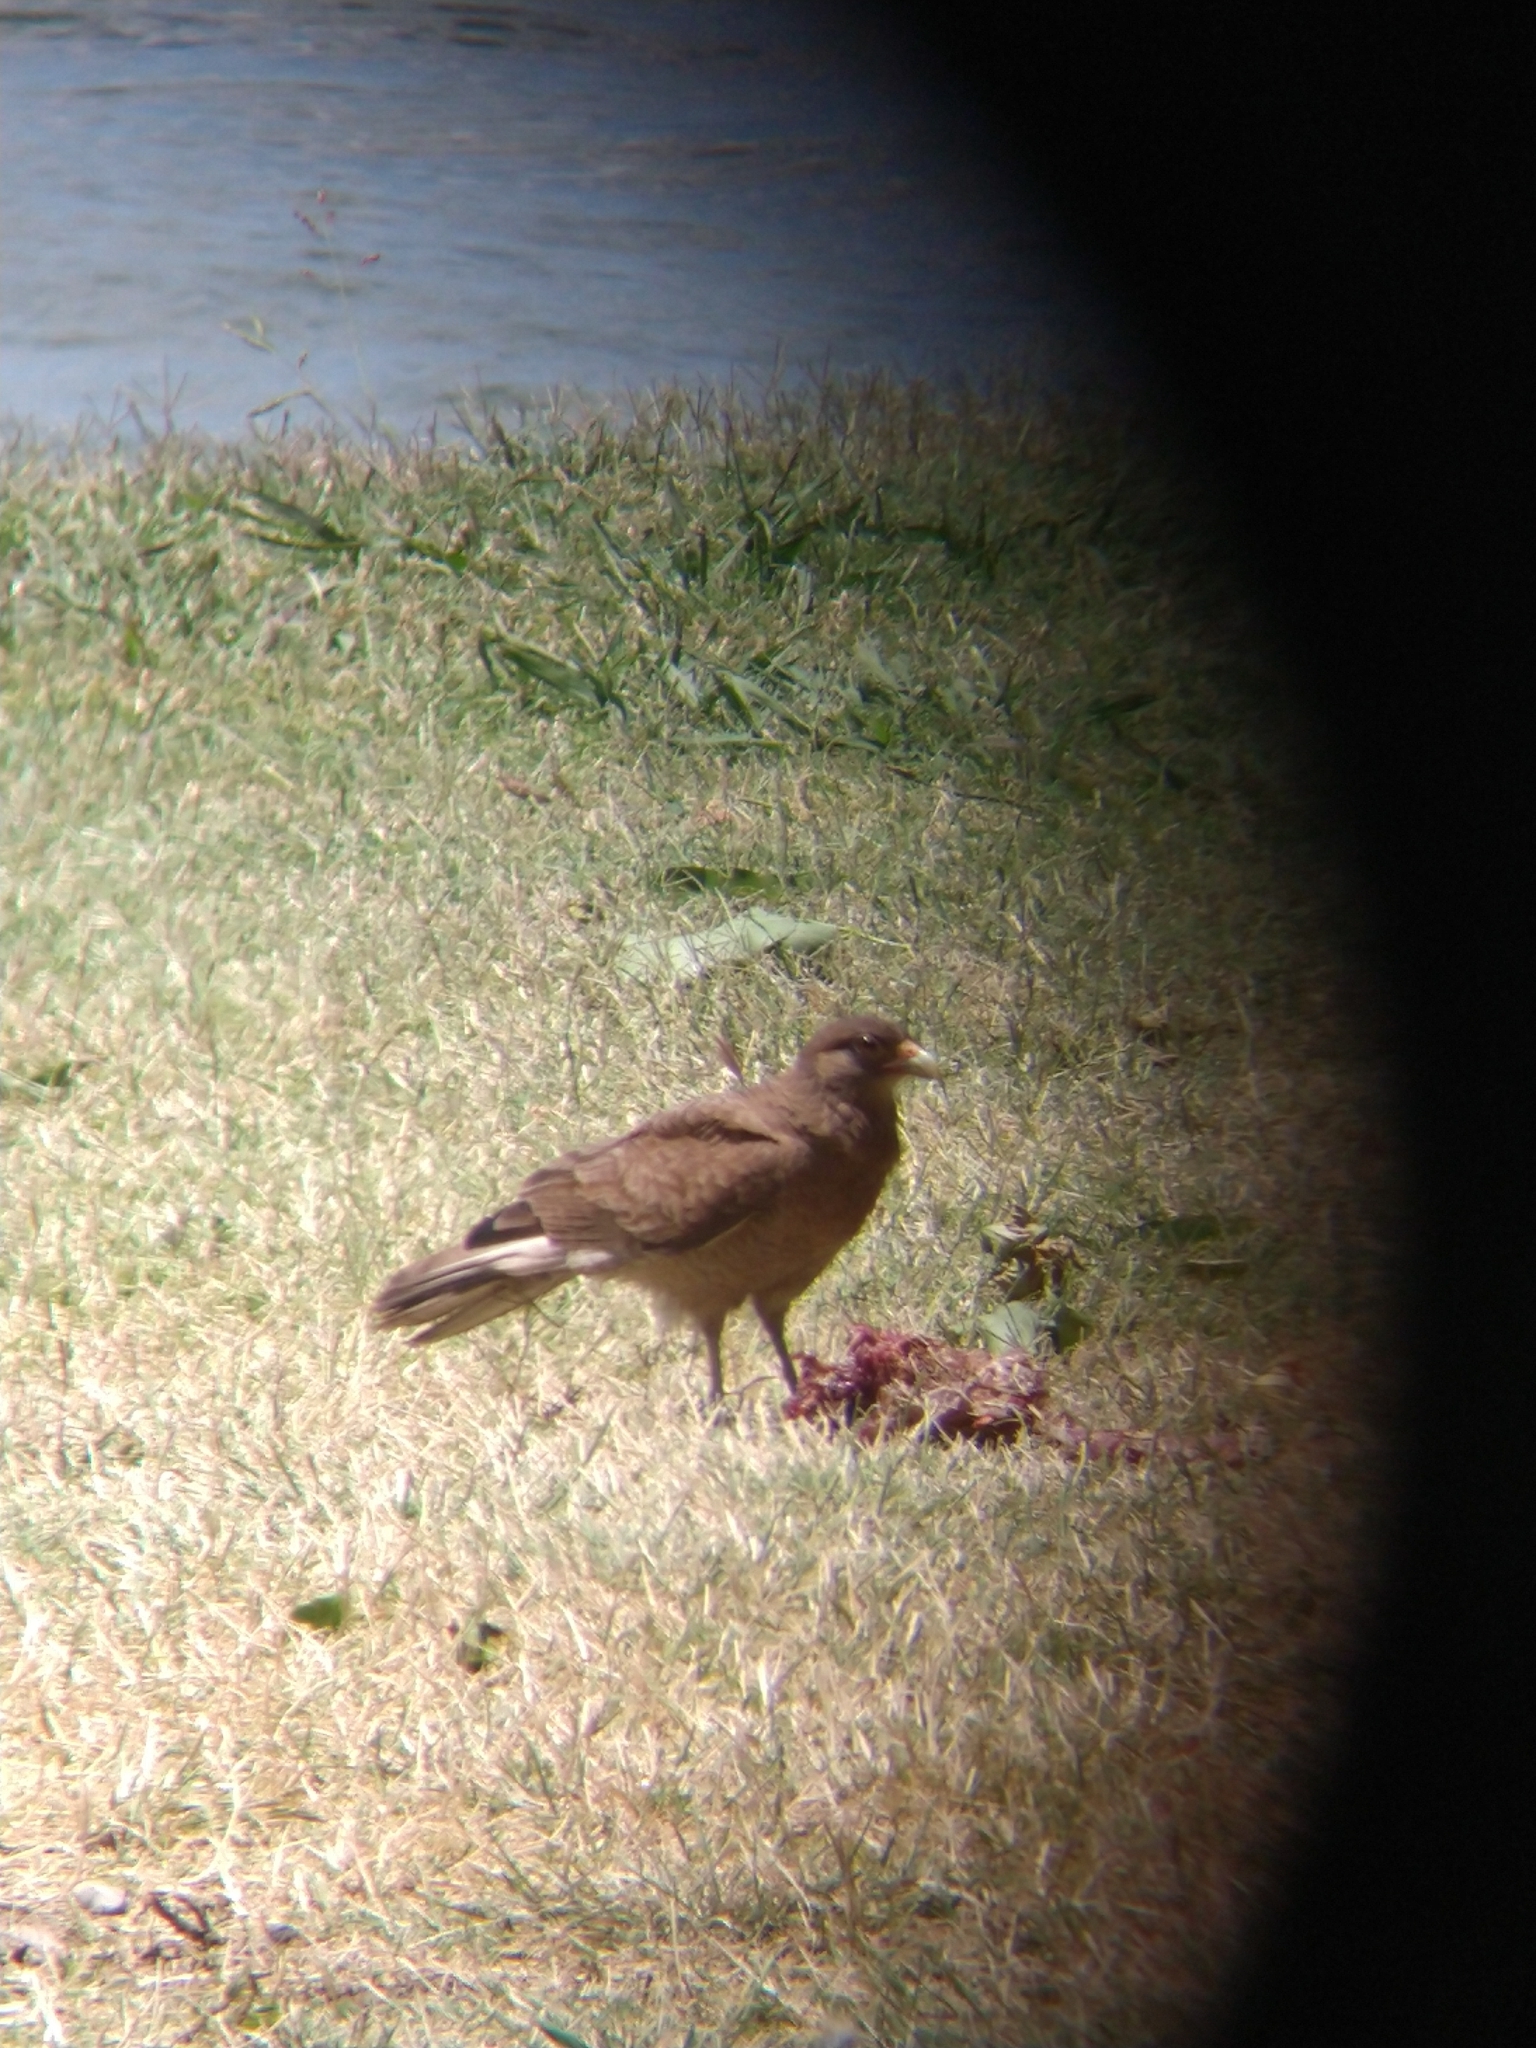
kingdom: Animalia
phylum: Chordata
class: Aves
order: Falconiformes
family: Falconidae
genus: Daptrius
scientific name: Daptrius
